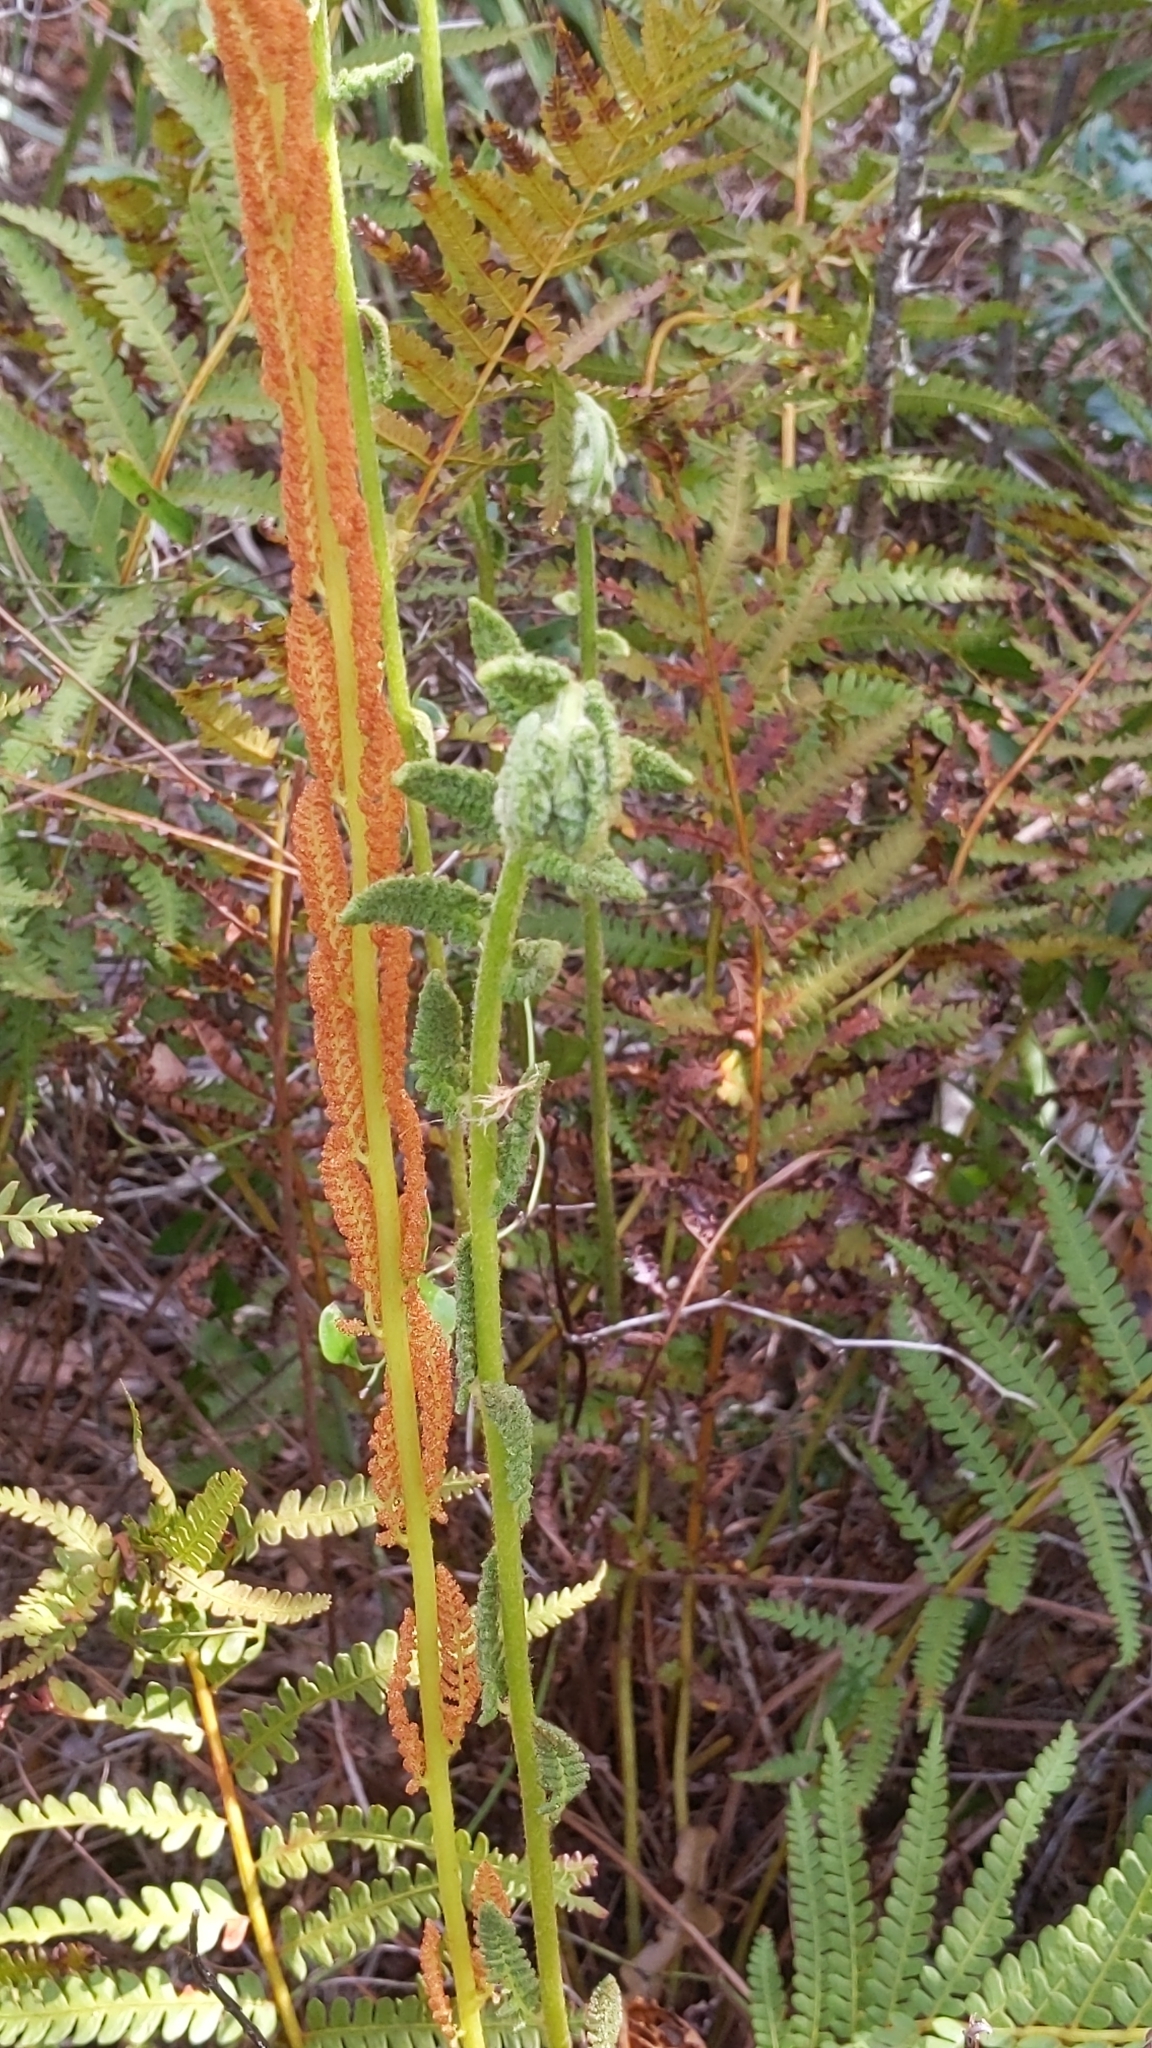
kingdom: Plantae
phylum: Tracheophyta
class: Polypodiopsida
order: Osmundales
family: Osmundaceae
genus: Osmundastrum
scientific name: Osmundastrum cinnamomeum
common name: Cinnamon fern
